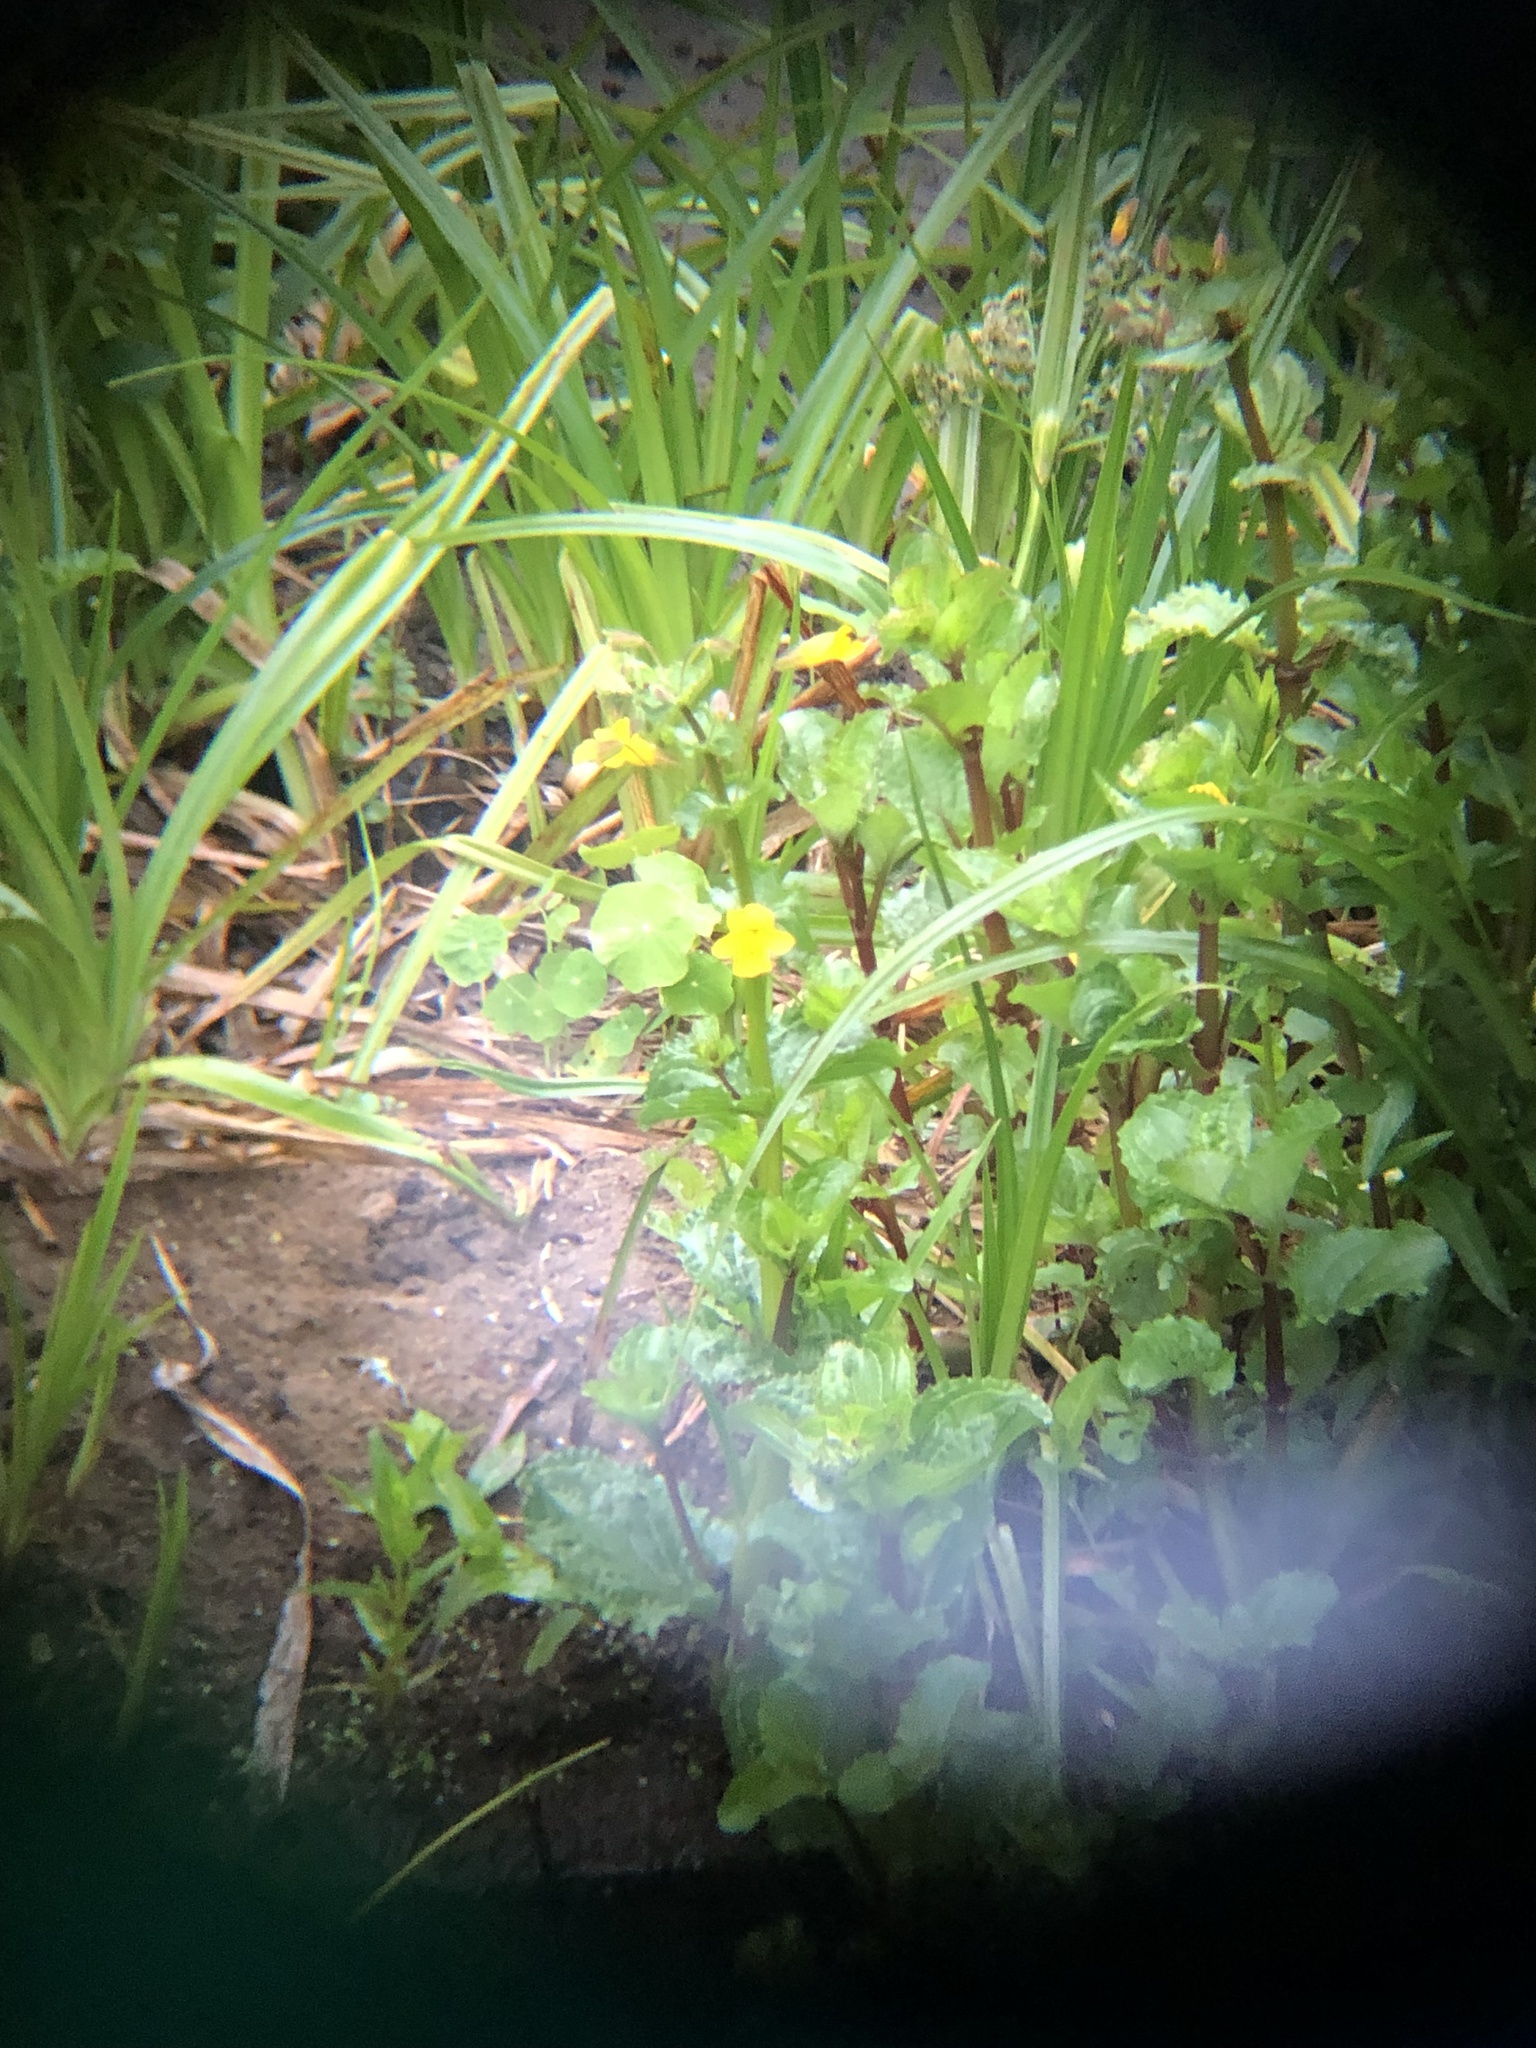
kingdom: Plantae
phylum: Tracheophyta
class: Magnoliopsida
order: Lamiales
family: Phrymaceae
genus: Erythranthe
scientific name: Erythranthe guttata
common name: Monkeyflower
